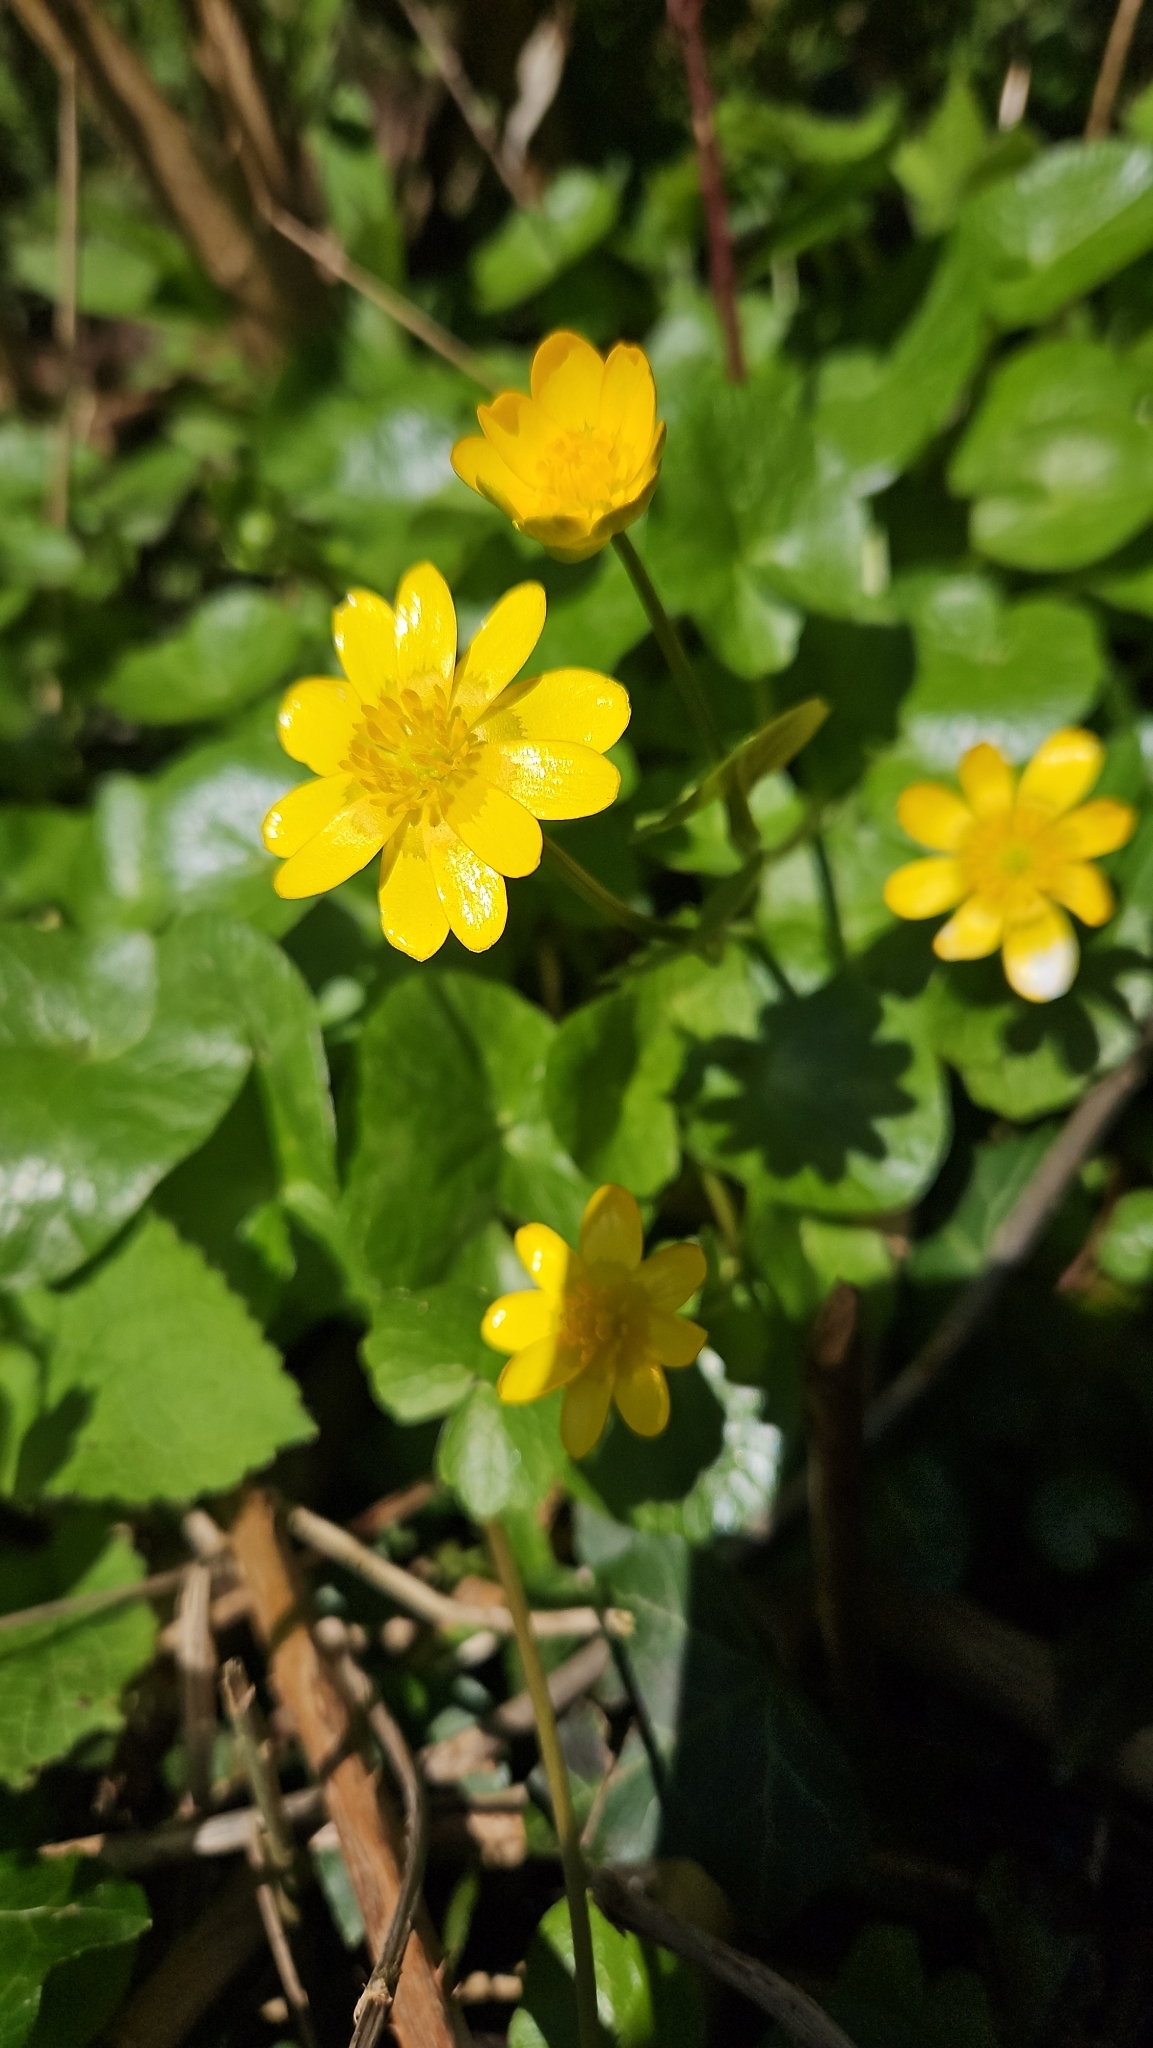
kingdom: Plantae
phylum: Tracheophyta
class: Magnoliopsida
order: Ranunculales
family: Ranunculaceae
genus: Ficaria
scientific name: Ficaria verna
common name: Lesser celandine
